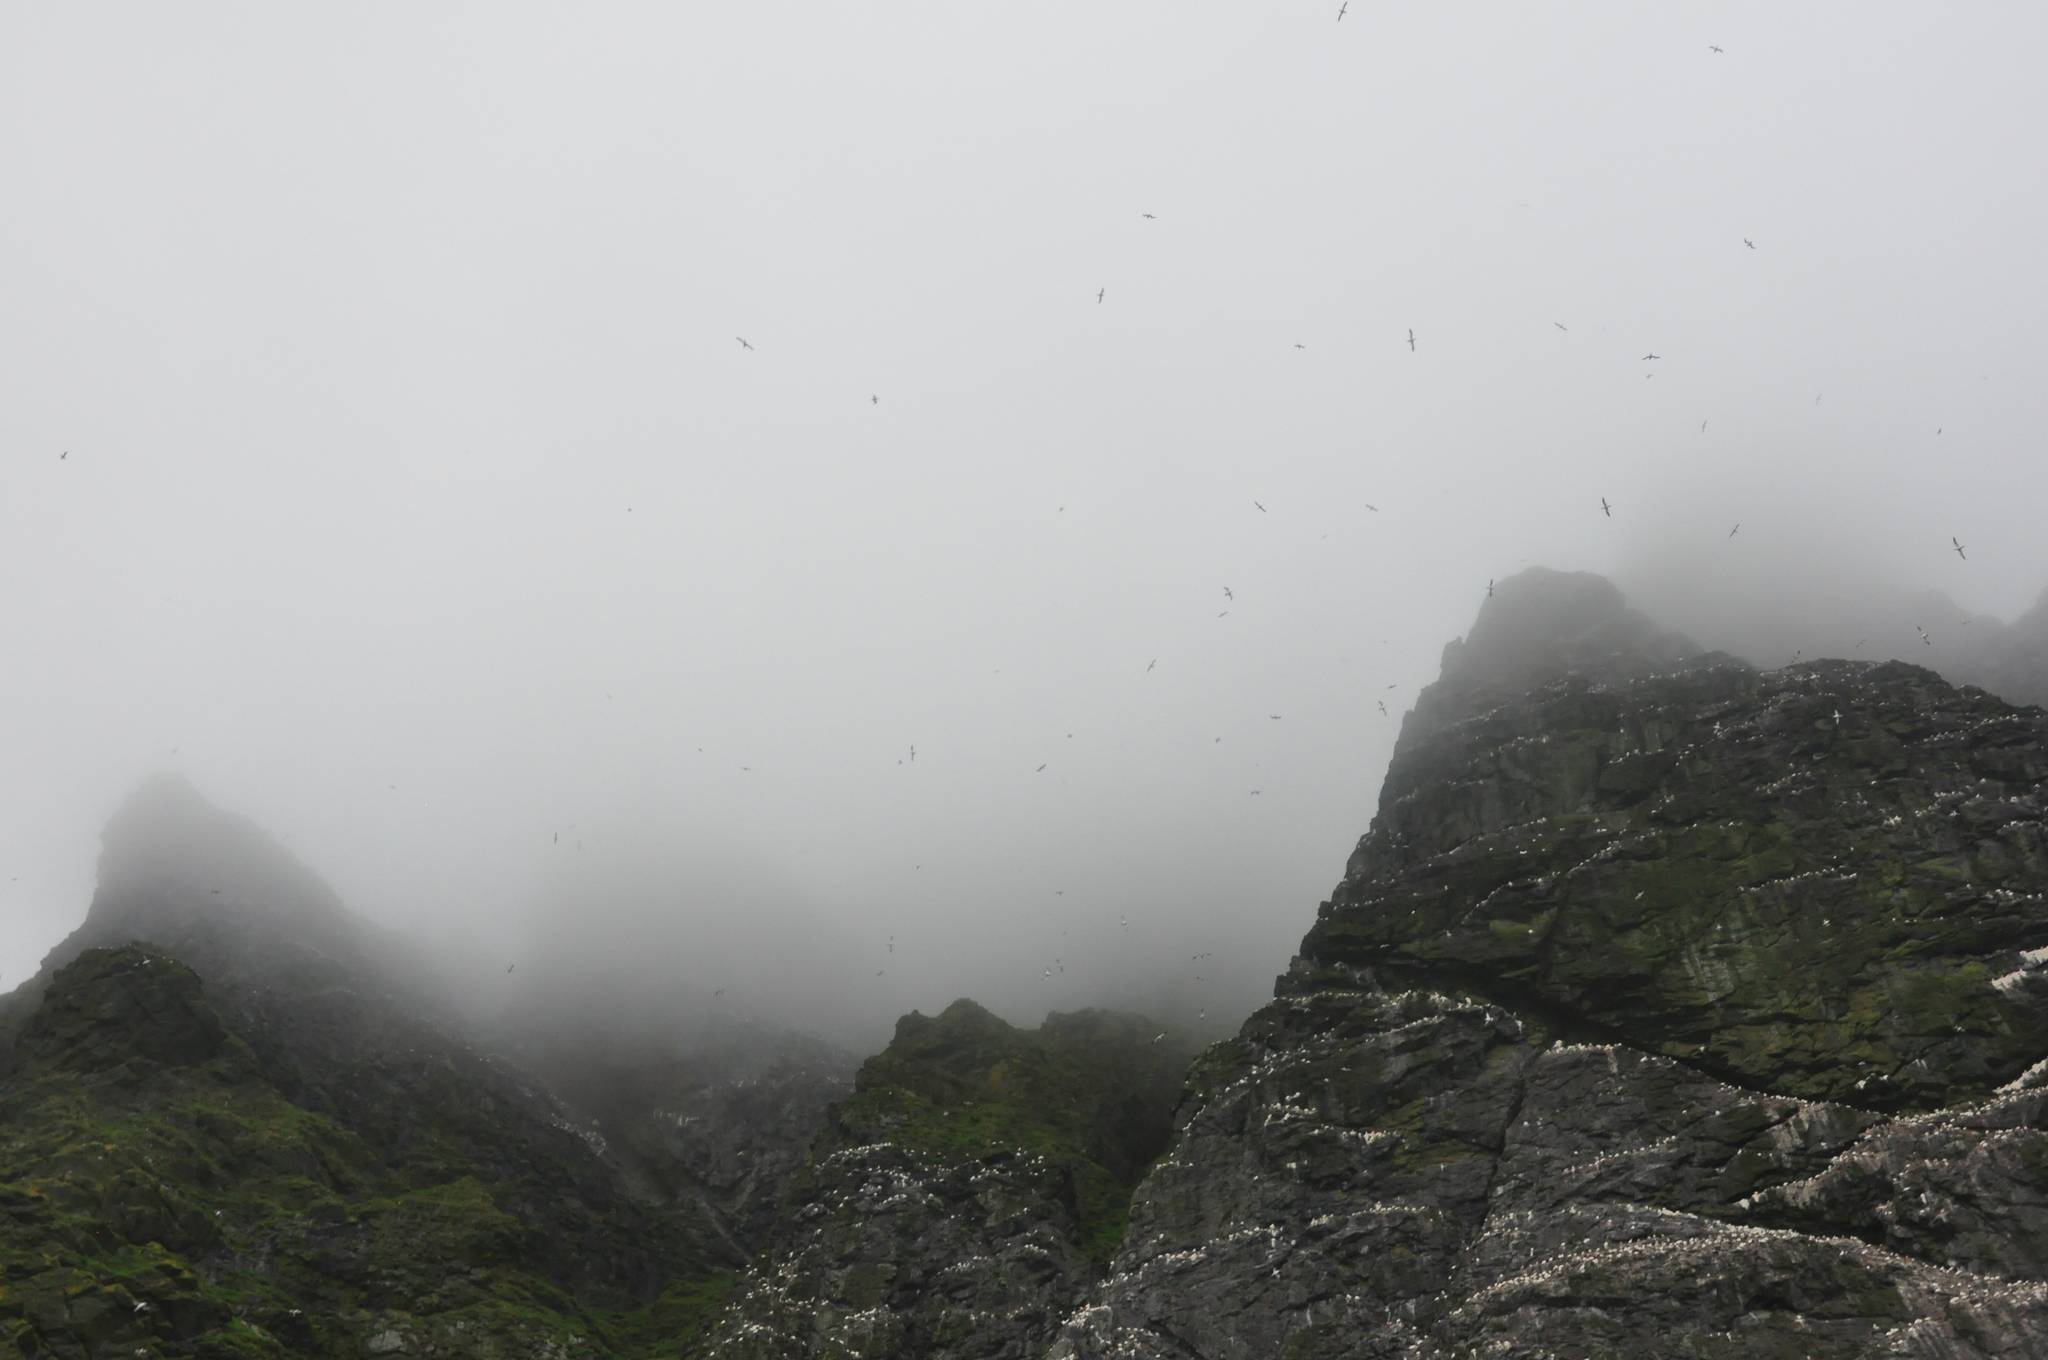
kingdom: Animalia
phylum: Chordata
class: Aves
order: Suliformes
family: Sulidae
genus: Morus
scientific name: Morus bassanus
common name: Northern gannet
